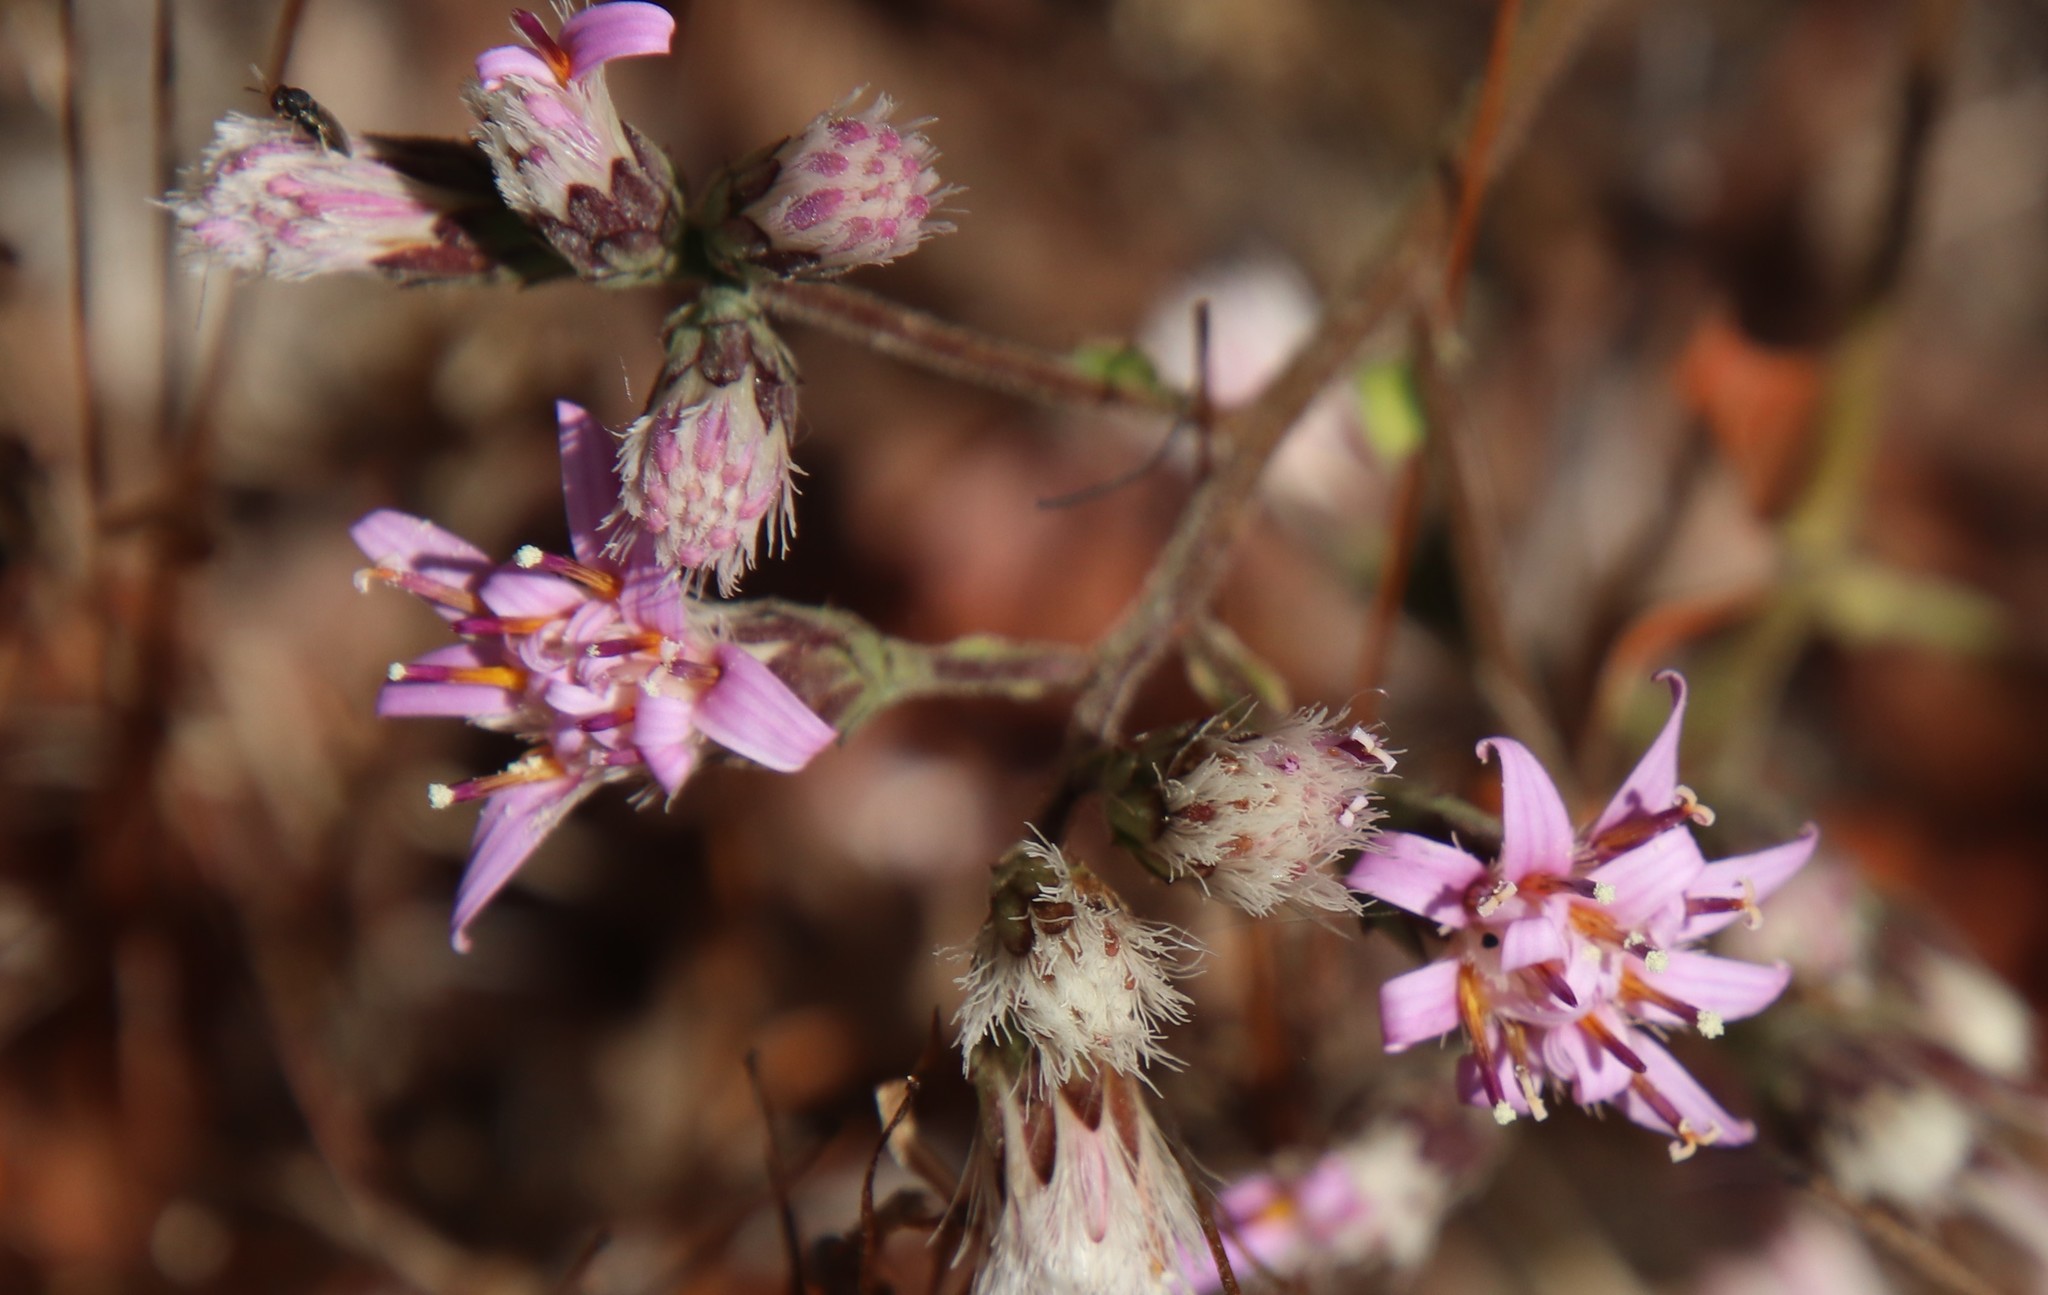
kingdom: Plantae
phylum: Tracheophyta
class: Magnoliopsida
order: Asterales
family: Asteraceae
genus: Acourtia
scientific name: Acourtia microcephala
